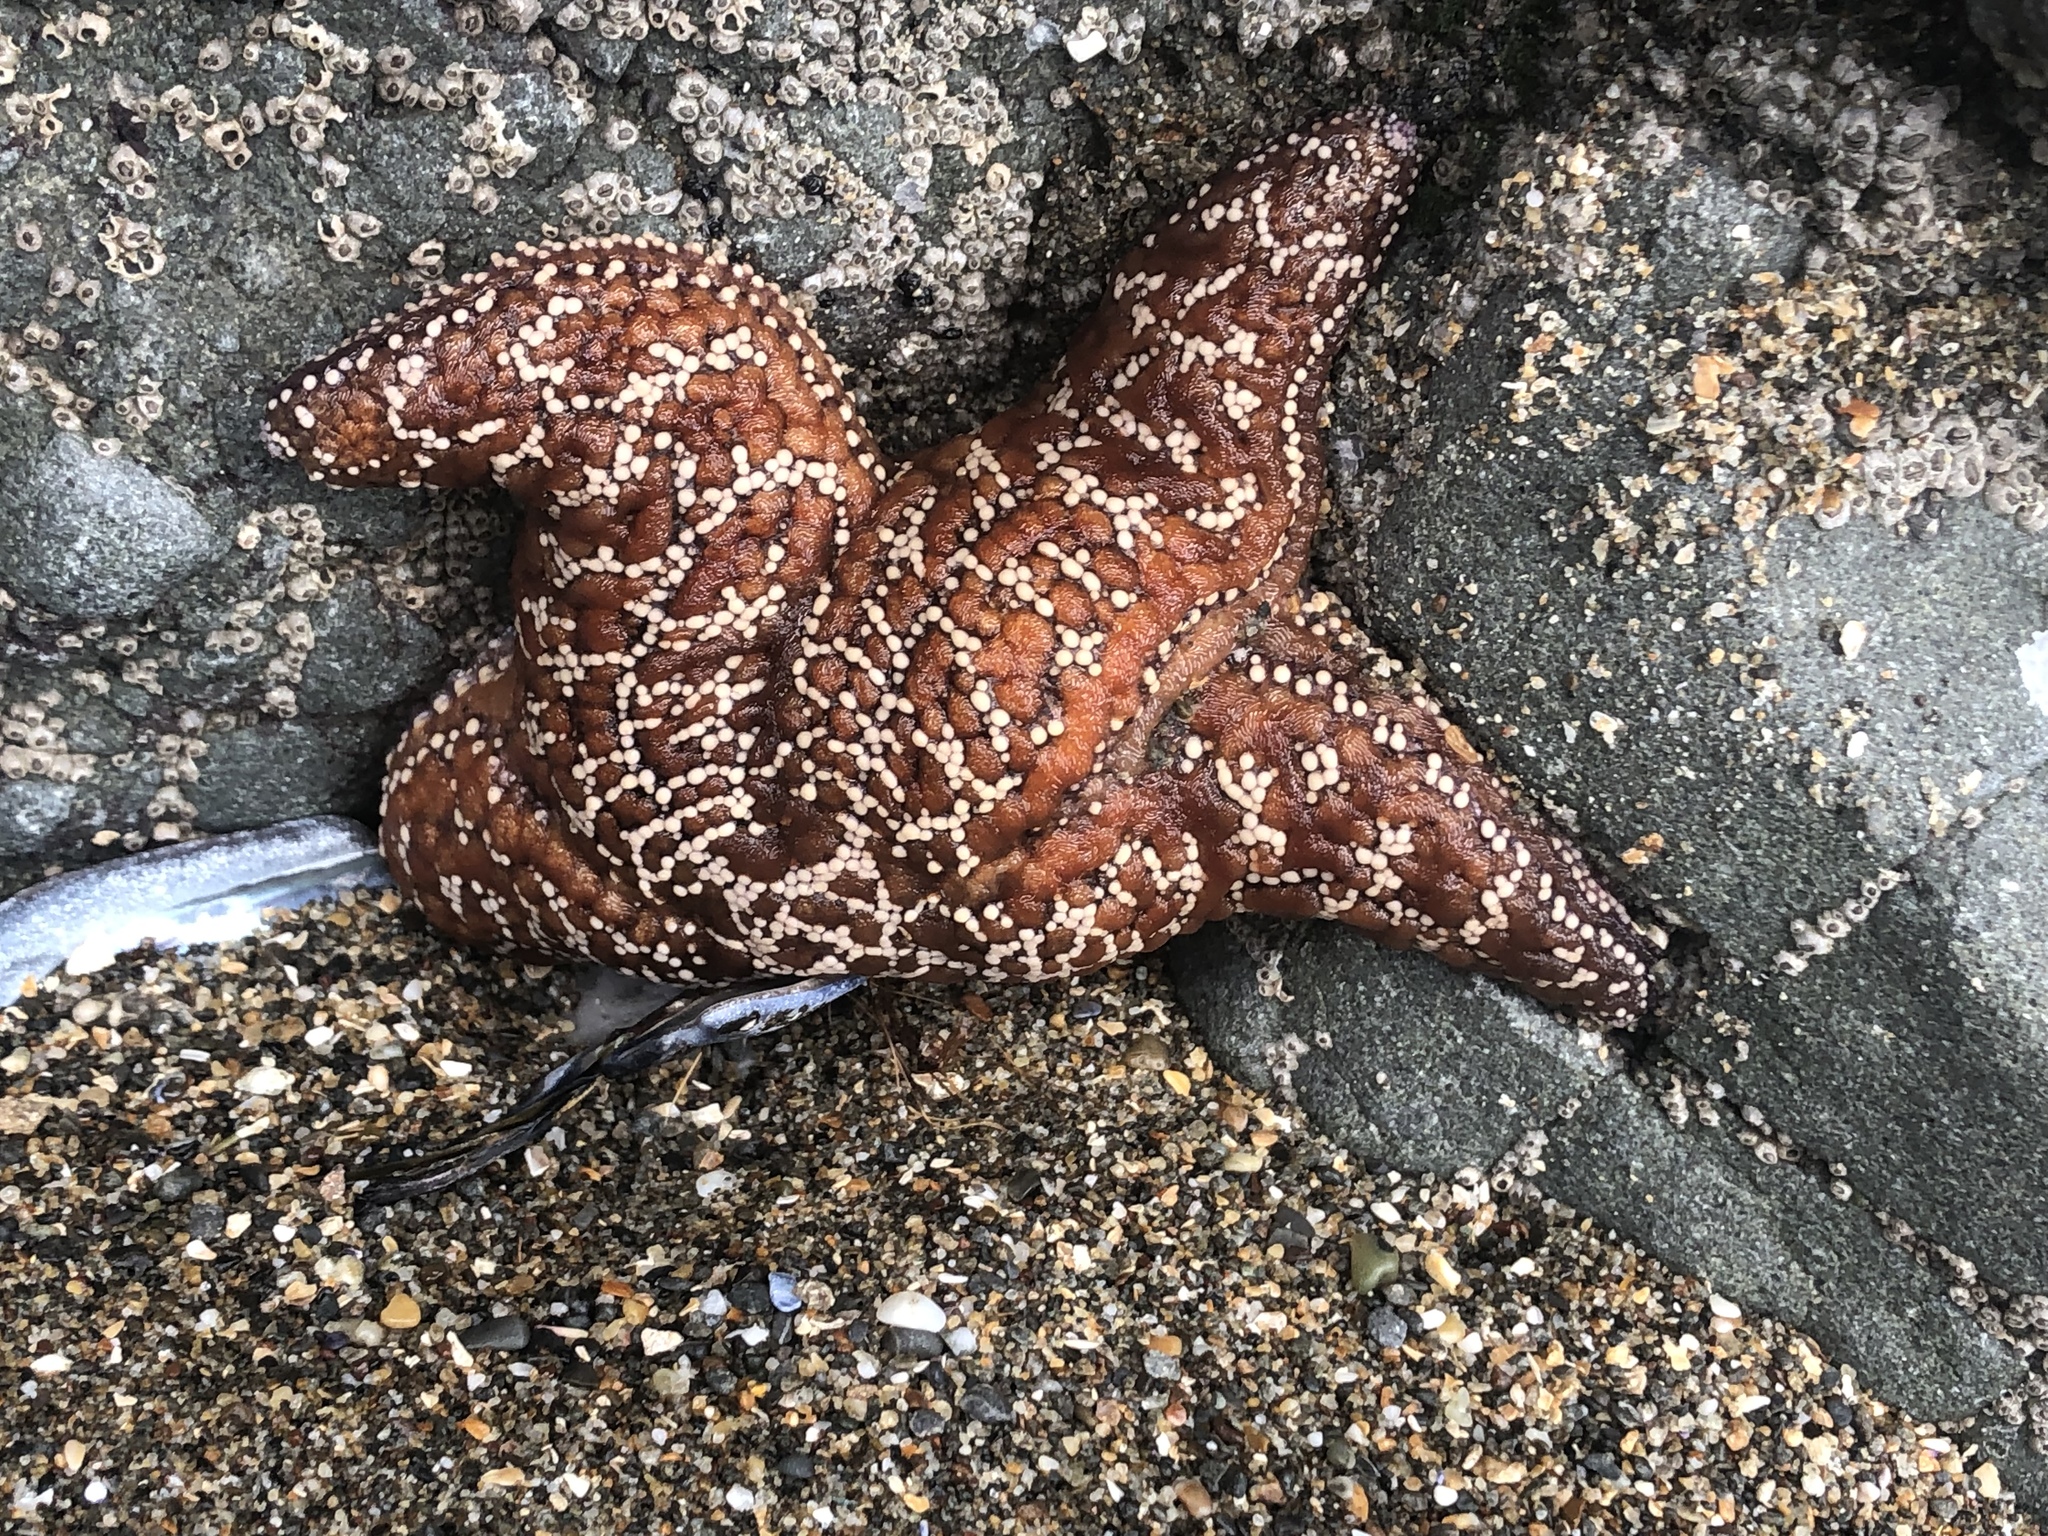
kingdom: Animalia
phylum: Echinodermata
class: Asteroidea
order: Forcipulatida
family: Asteriidae
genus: Pisaster
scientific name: Pisaster ochraceus
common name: Ochre stars
